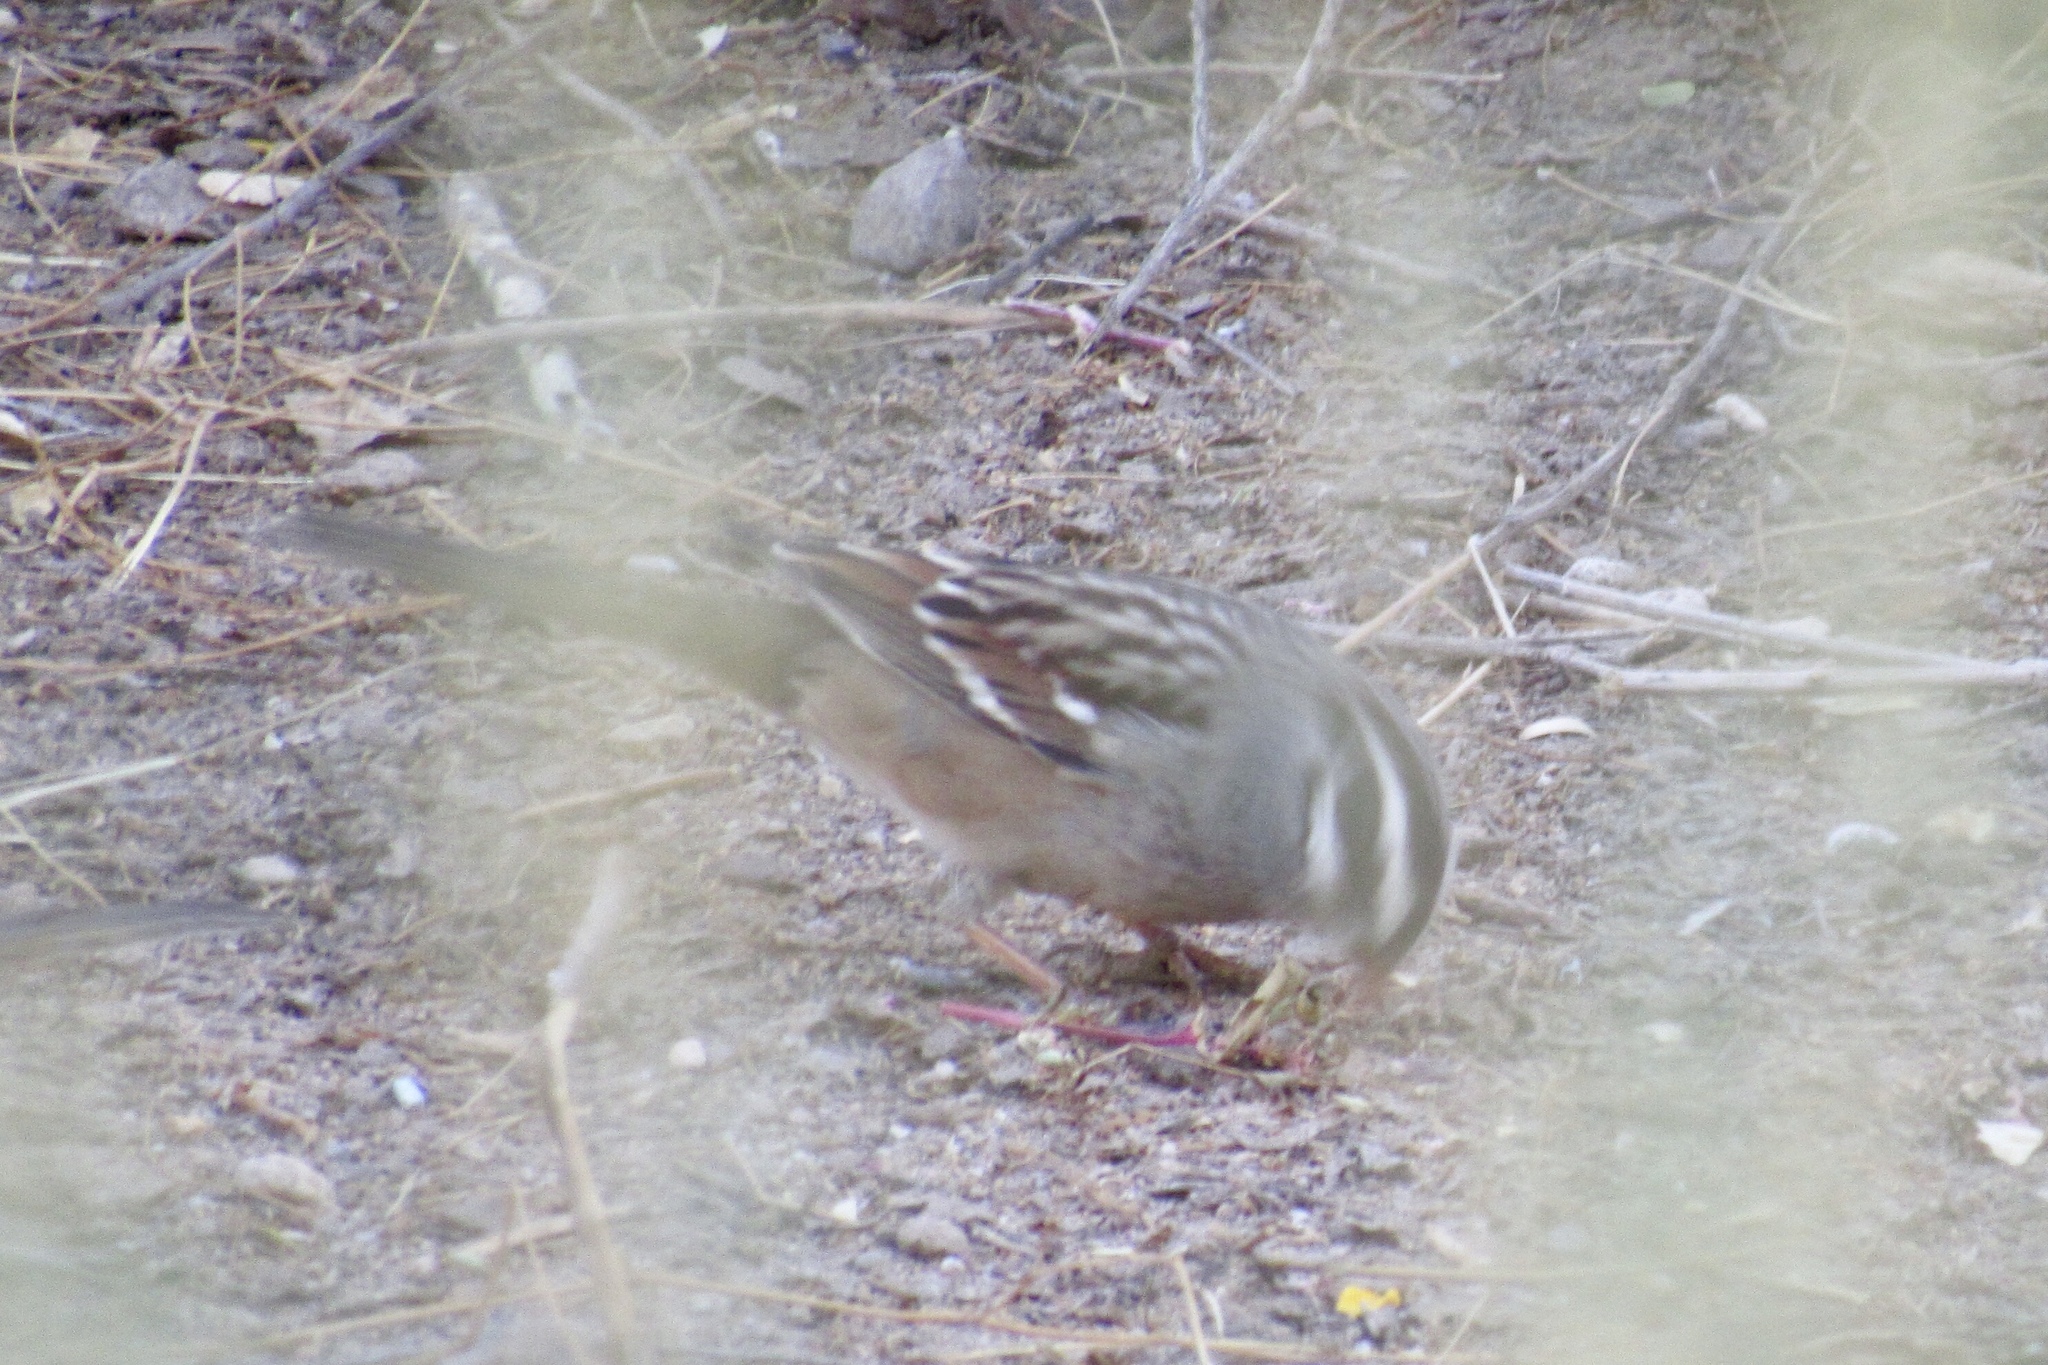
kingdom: Animalia
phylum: Chordata
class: Aves
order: Passeriformes
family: Passerellidae
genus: Zonotrichia
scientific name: Zonotrichia leucophrys
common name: White-crowned sparrow
